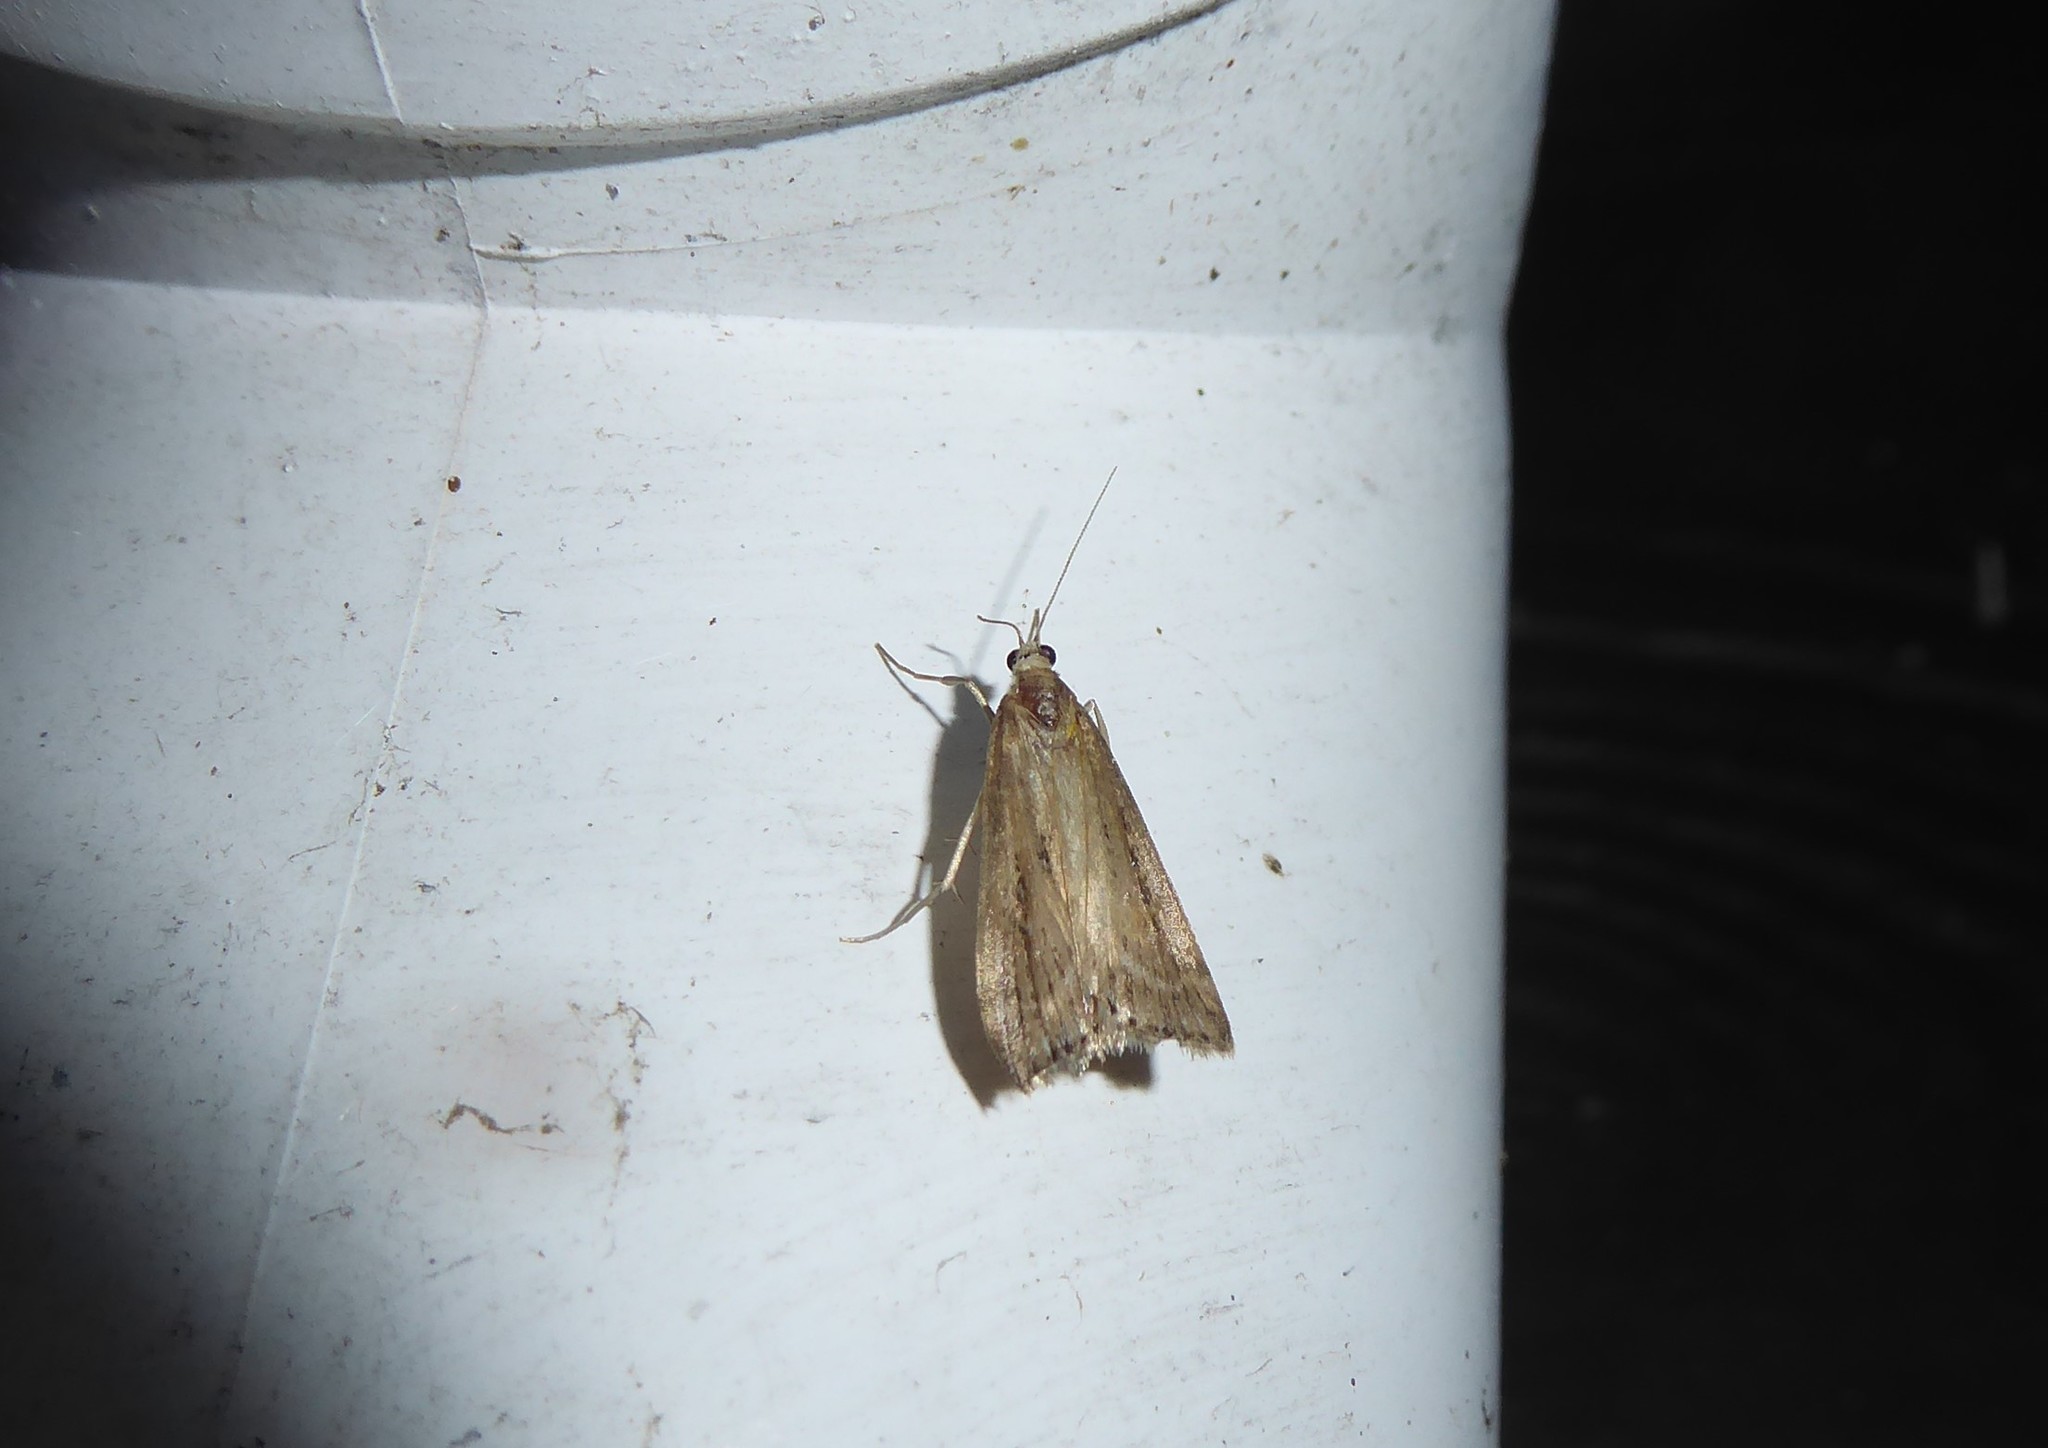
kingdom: Animalia
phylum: Arthropoda
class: Insecta
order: Lepidoptera
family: Crambidae
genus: Eudonia
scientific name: Eudonia octophora
